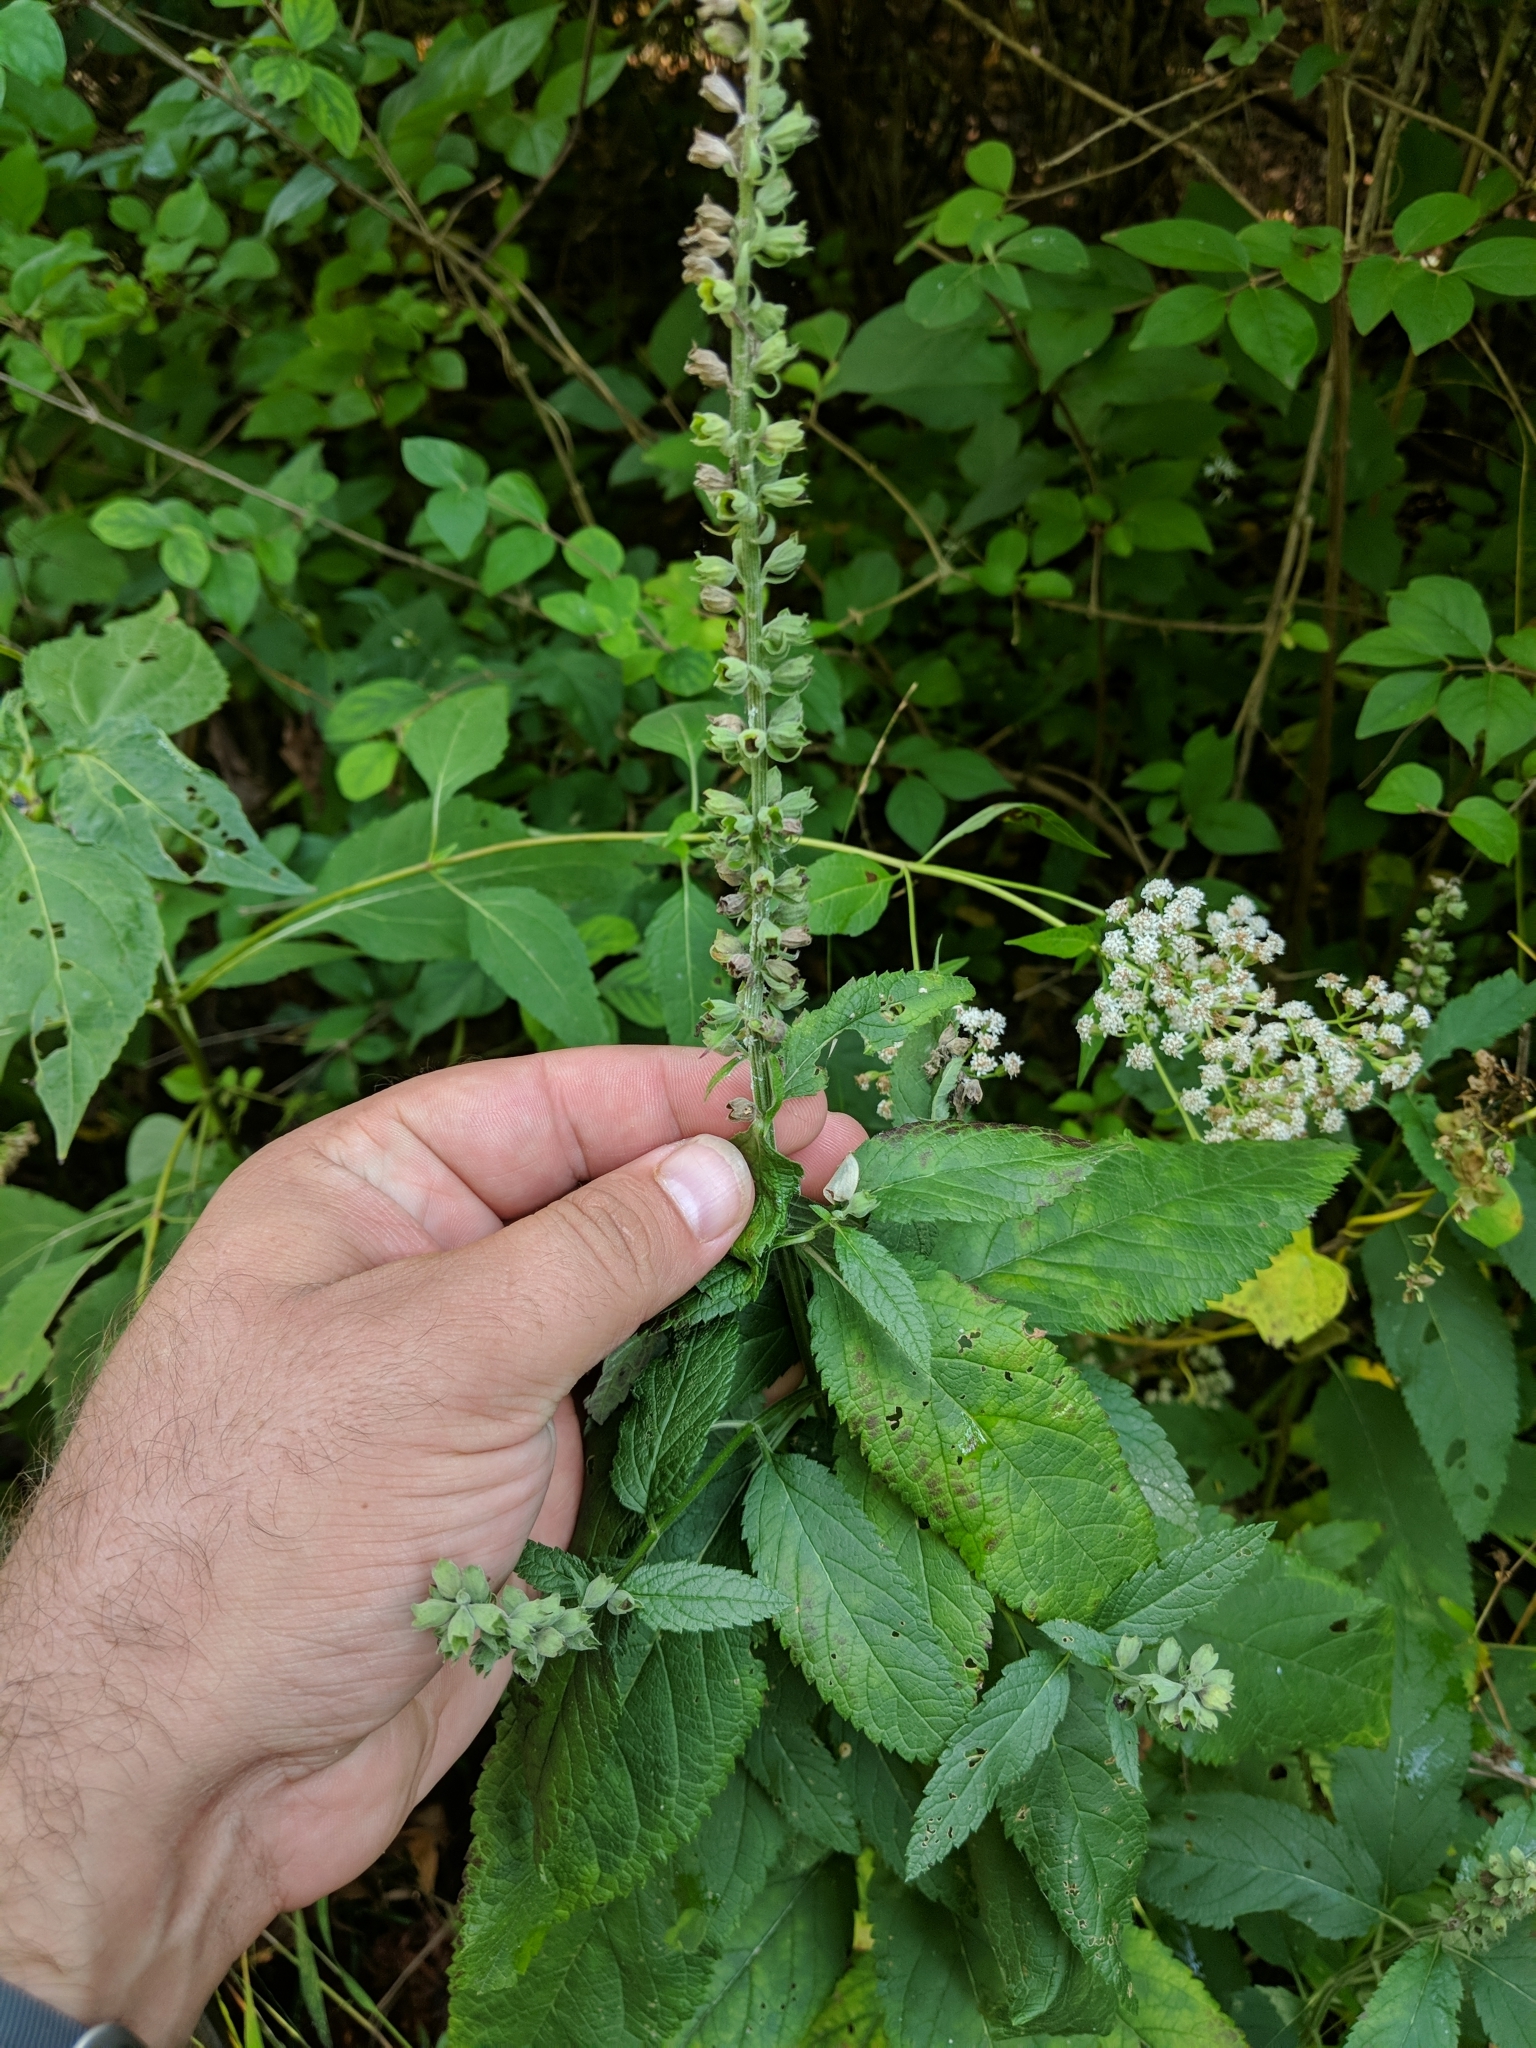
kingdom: Plantae
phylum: Tracheophyta
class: Magnoliopsida
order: Lamiales
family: Lamiaceae
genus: Teucrium
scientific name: Teucrium canadense
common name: American germander
